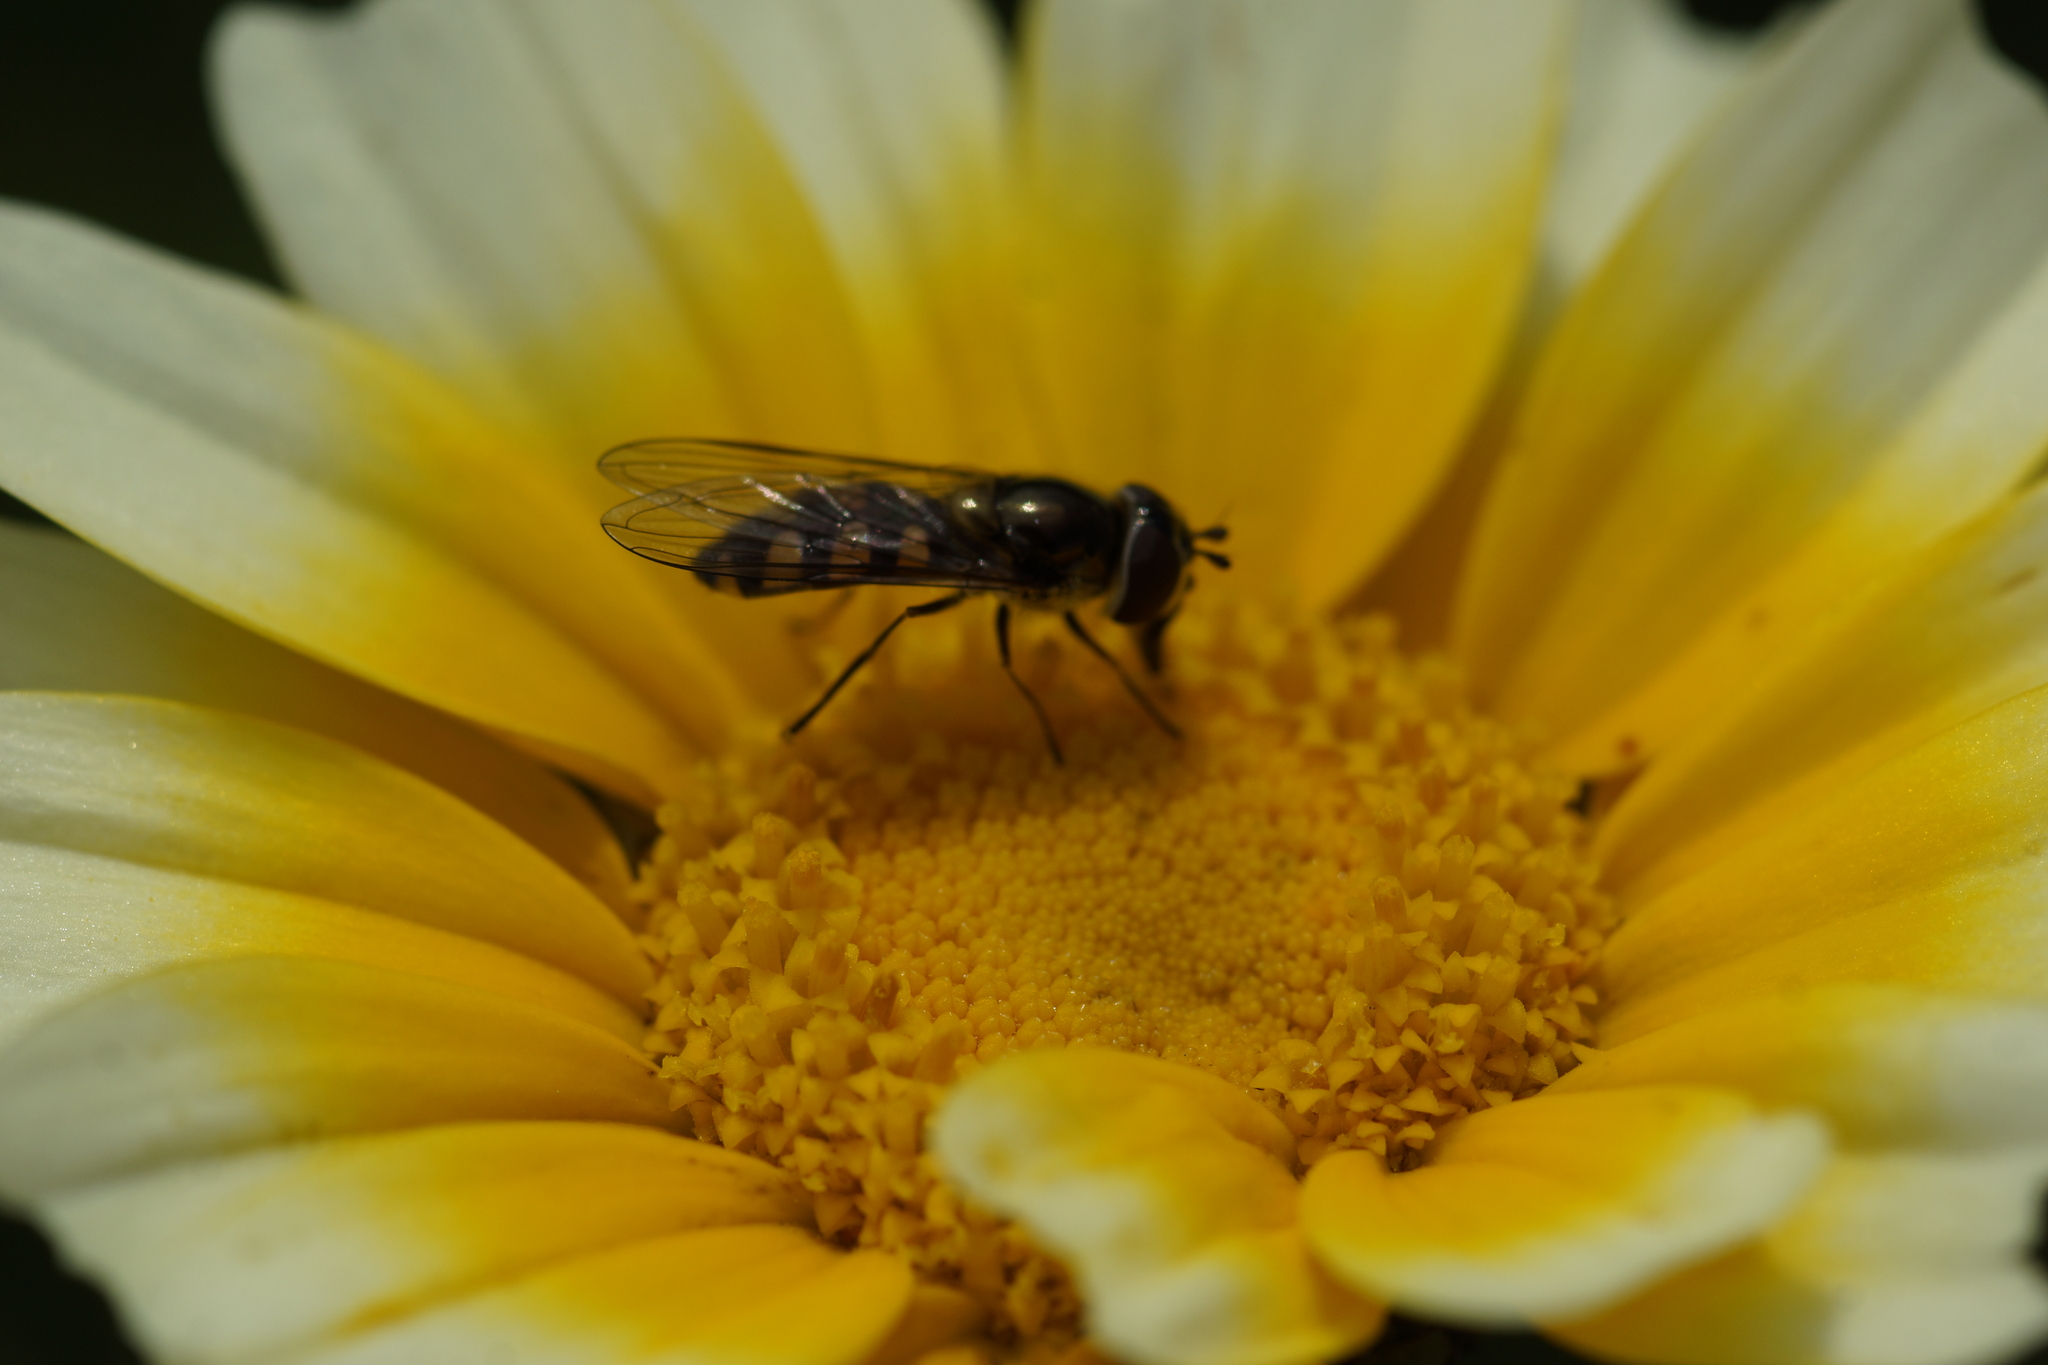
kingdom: Animalia
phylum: Arthropoda
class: Insecta
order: Diptera
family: Syrphidae
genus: Melangyna
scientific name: Melangyna viridiceps
